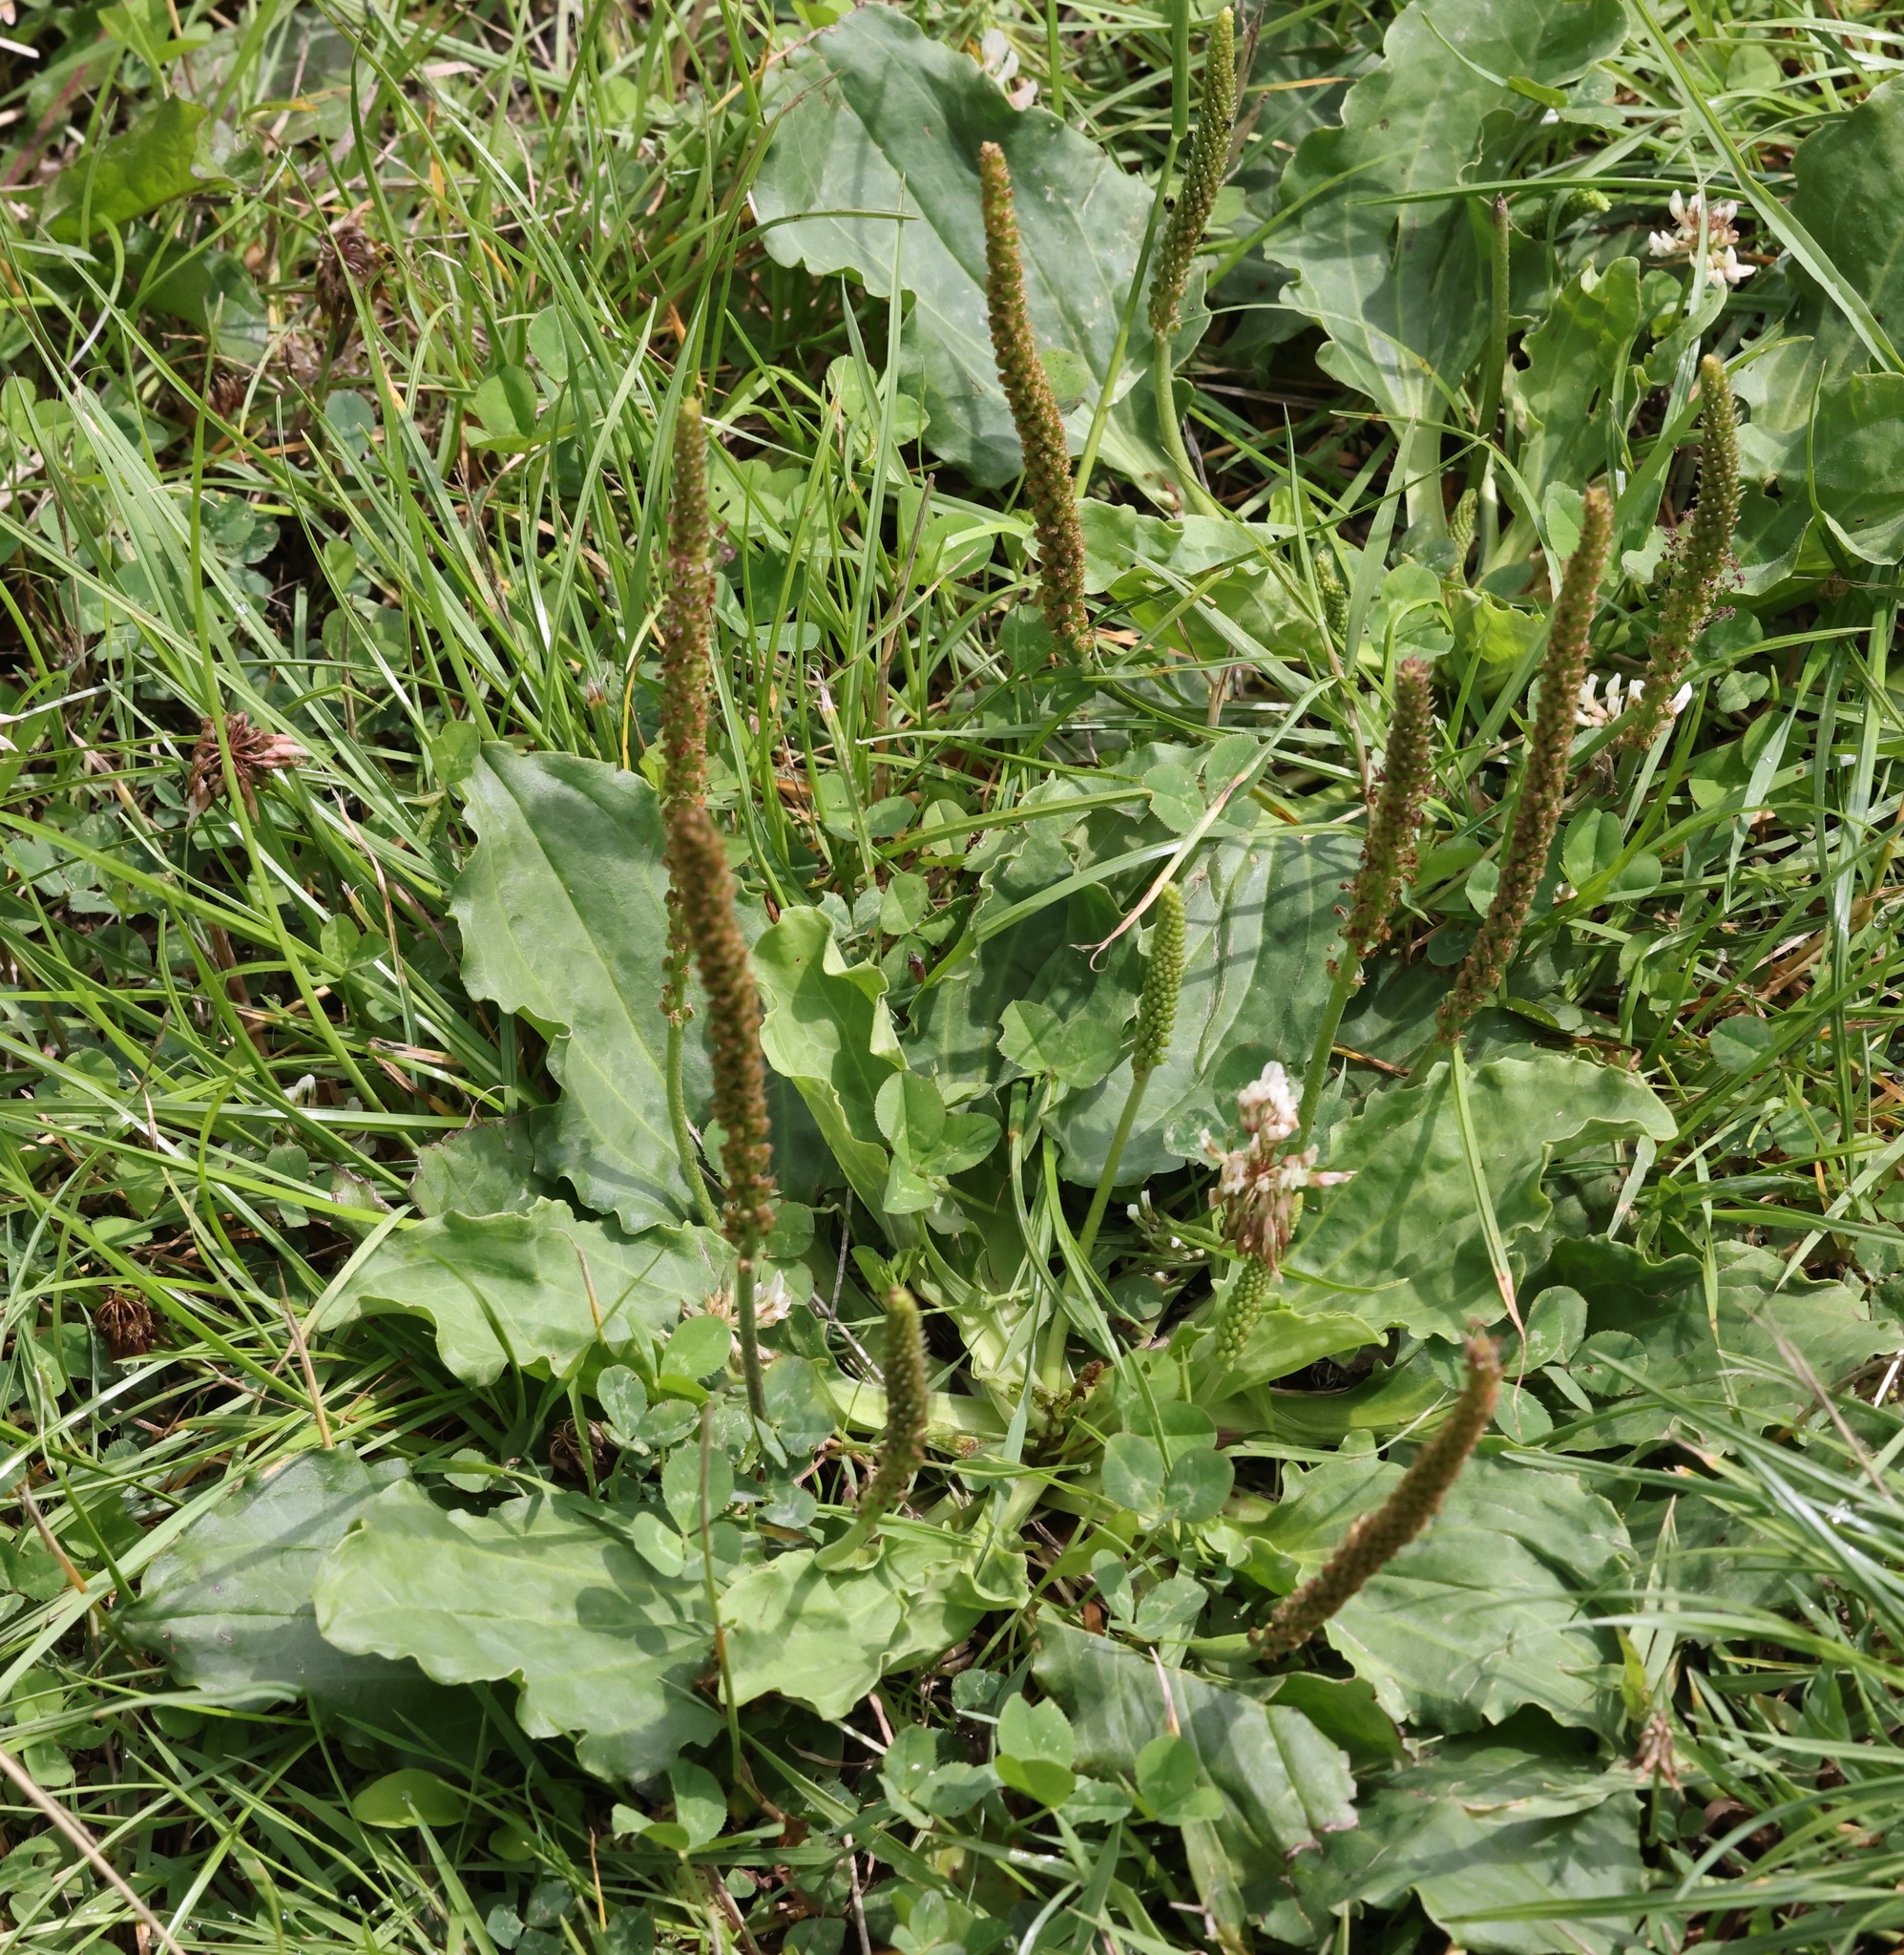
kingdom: Plantae
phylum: Tracheophyta
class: Magnoliopsida
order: Lamiales
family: Plantaginaceae
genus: Plantago
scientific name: Plantago major
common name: Common plantain
